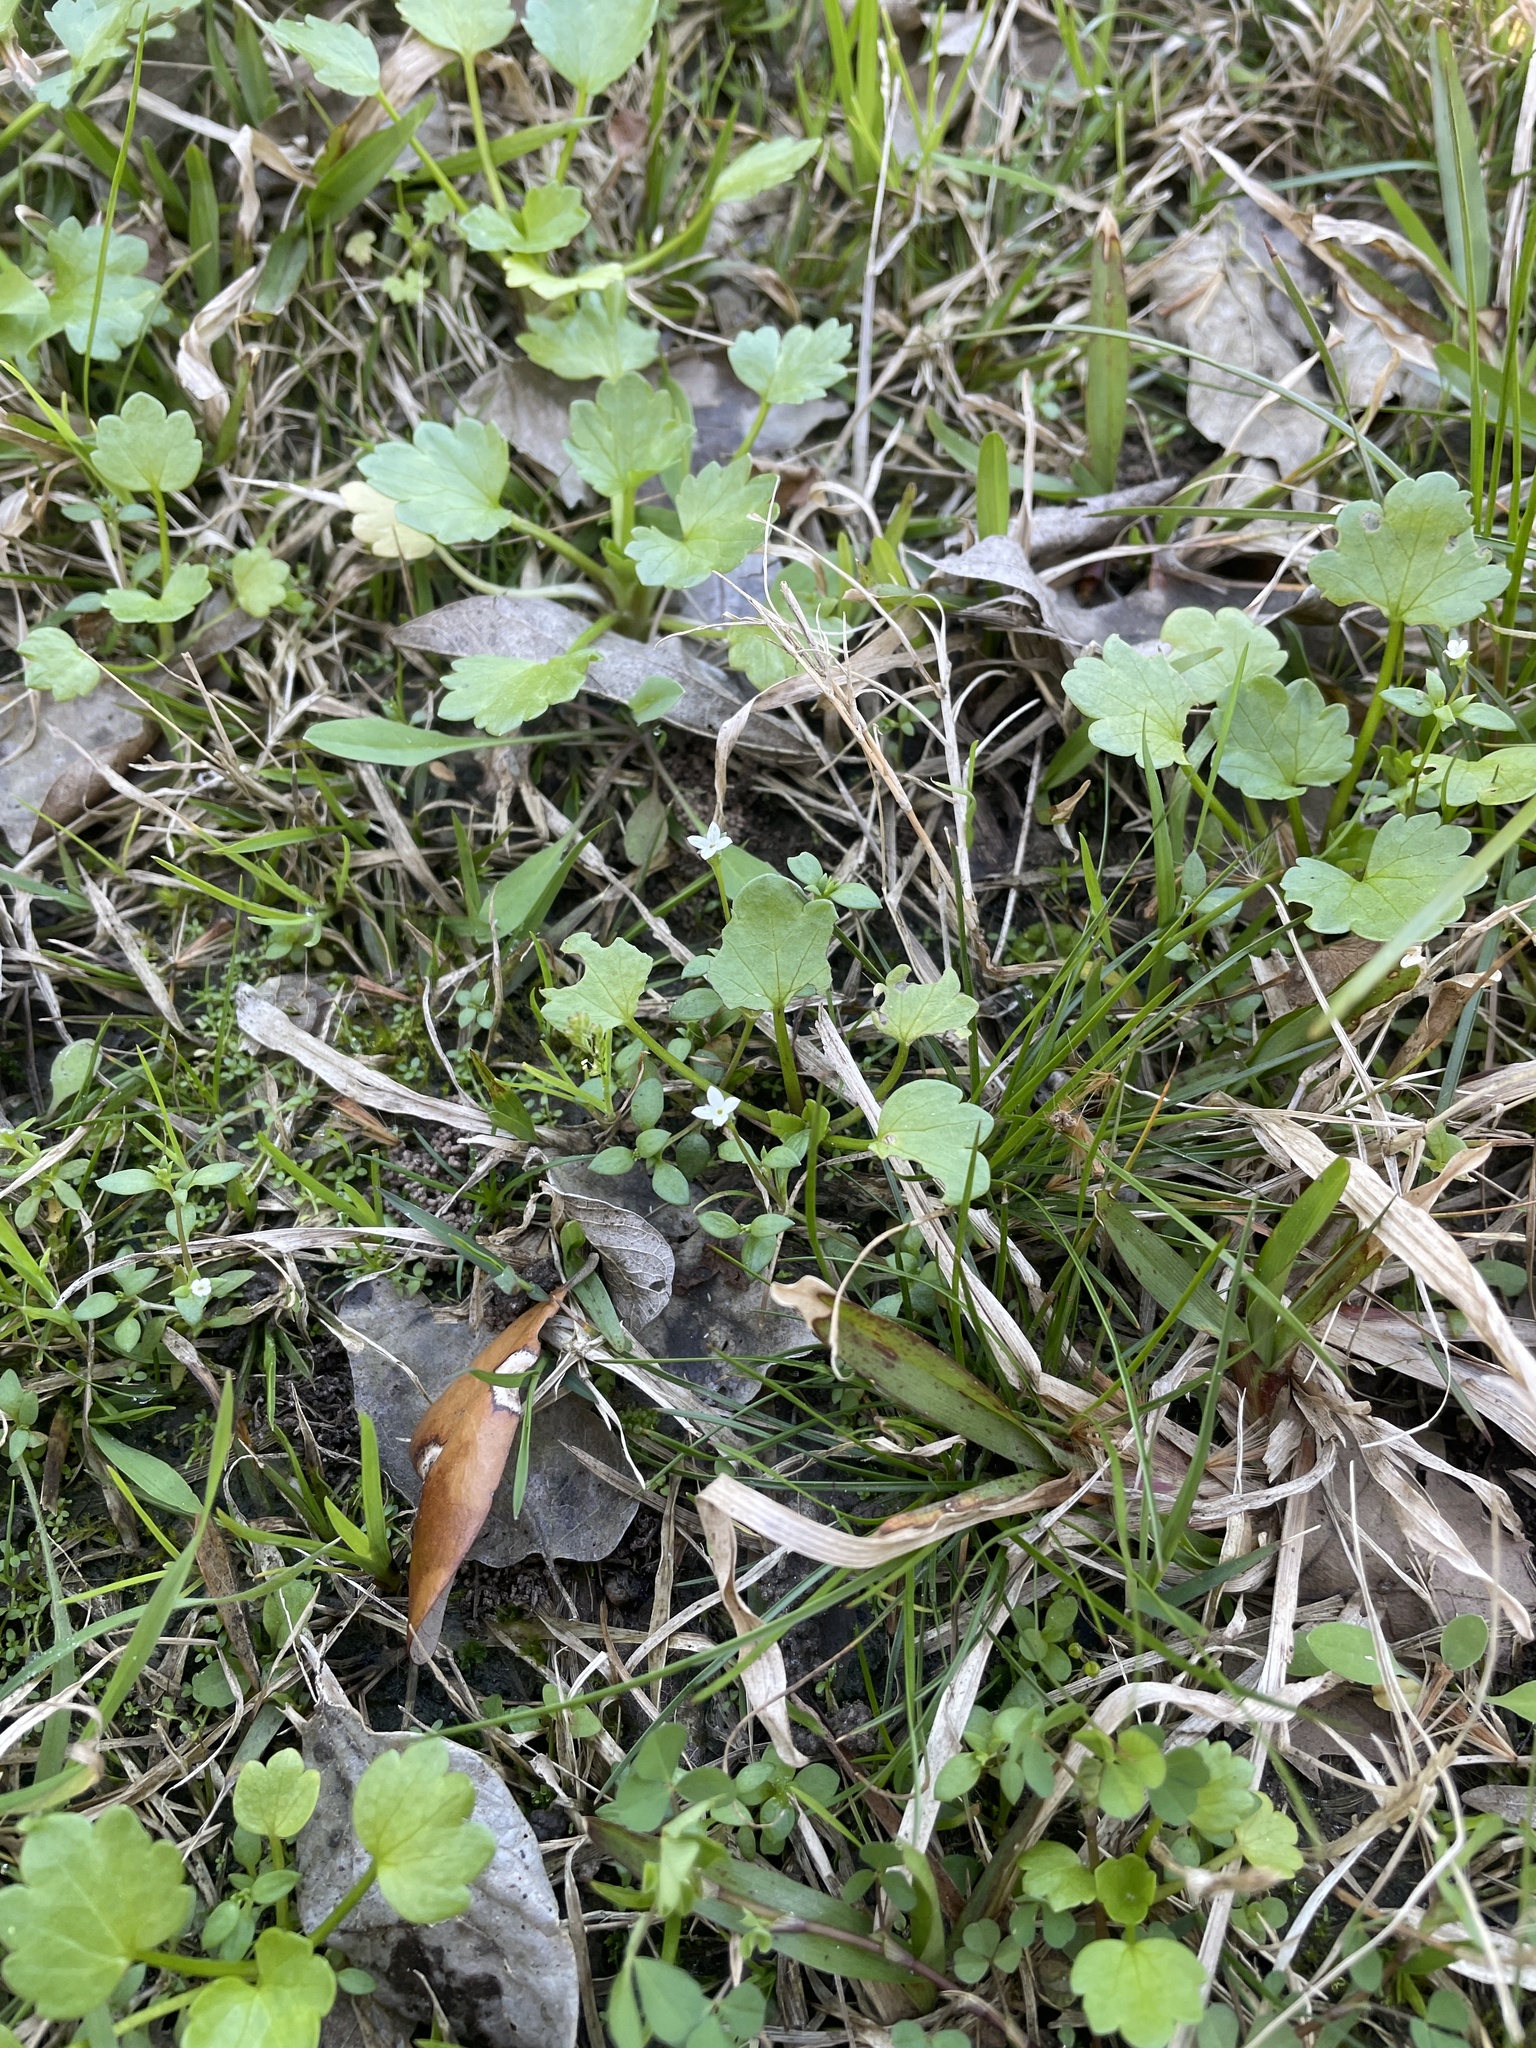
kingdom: Plantae
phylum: Tracheophyta
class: Magnoliopsida
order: Gentianales
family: Rubiaceae
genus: Houstonia
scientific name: Houstonia micrantha
